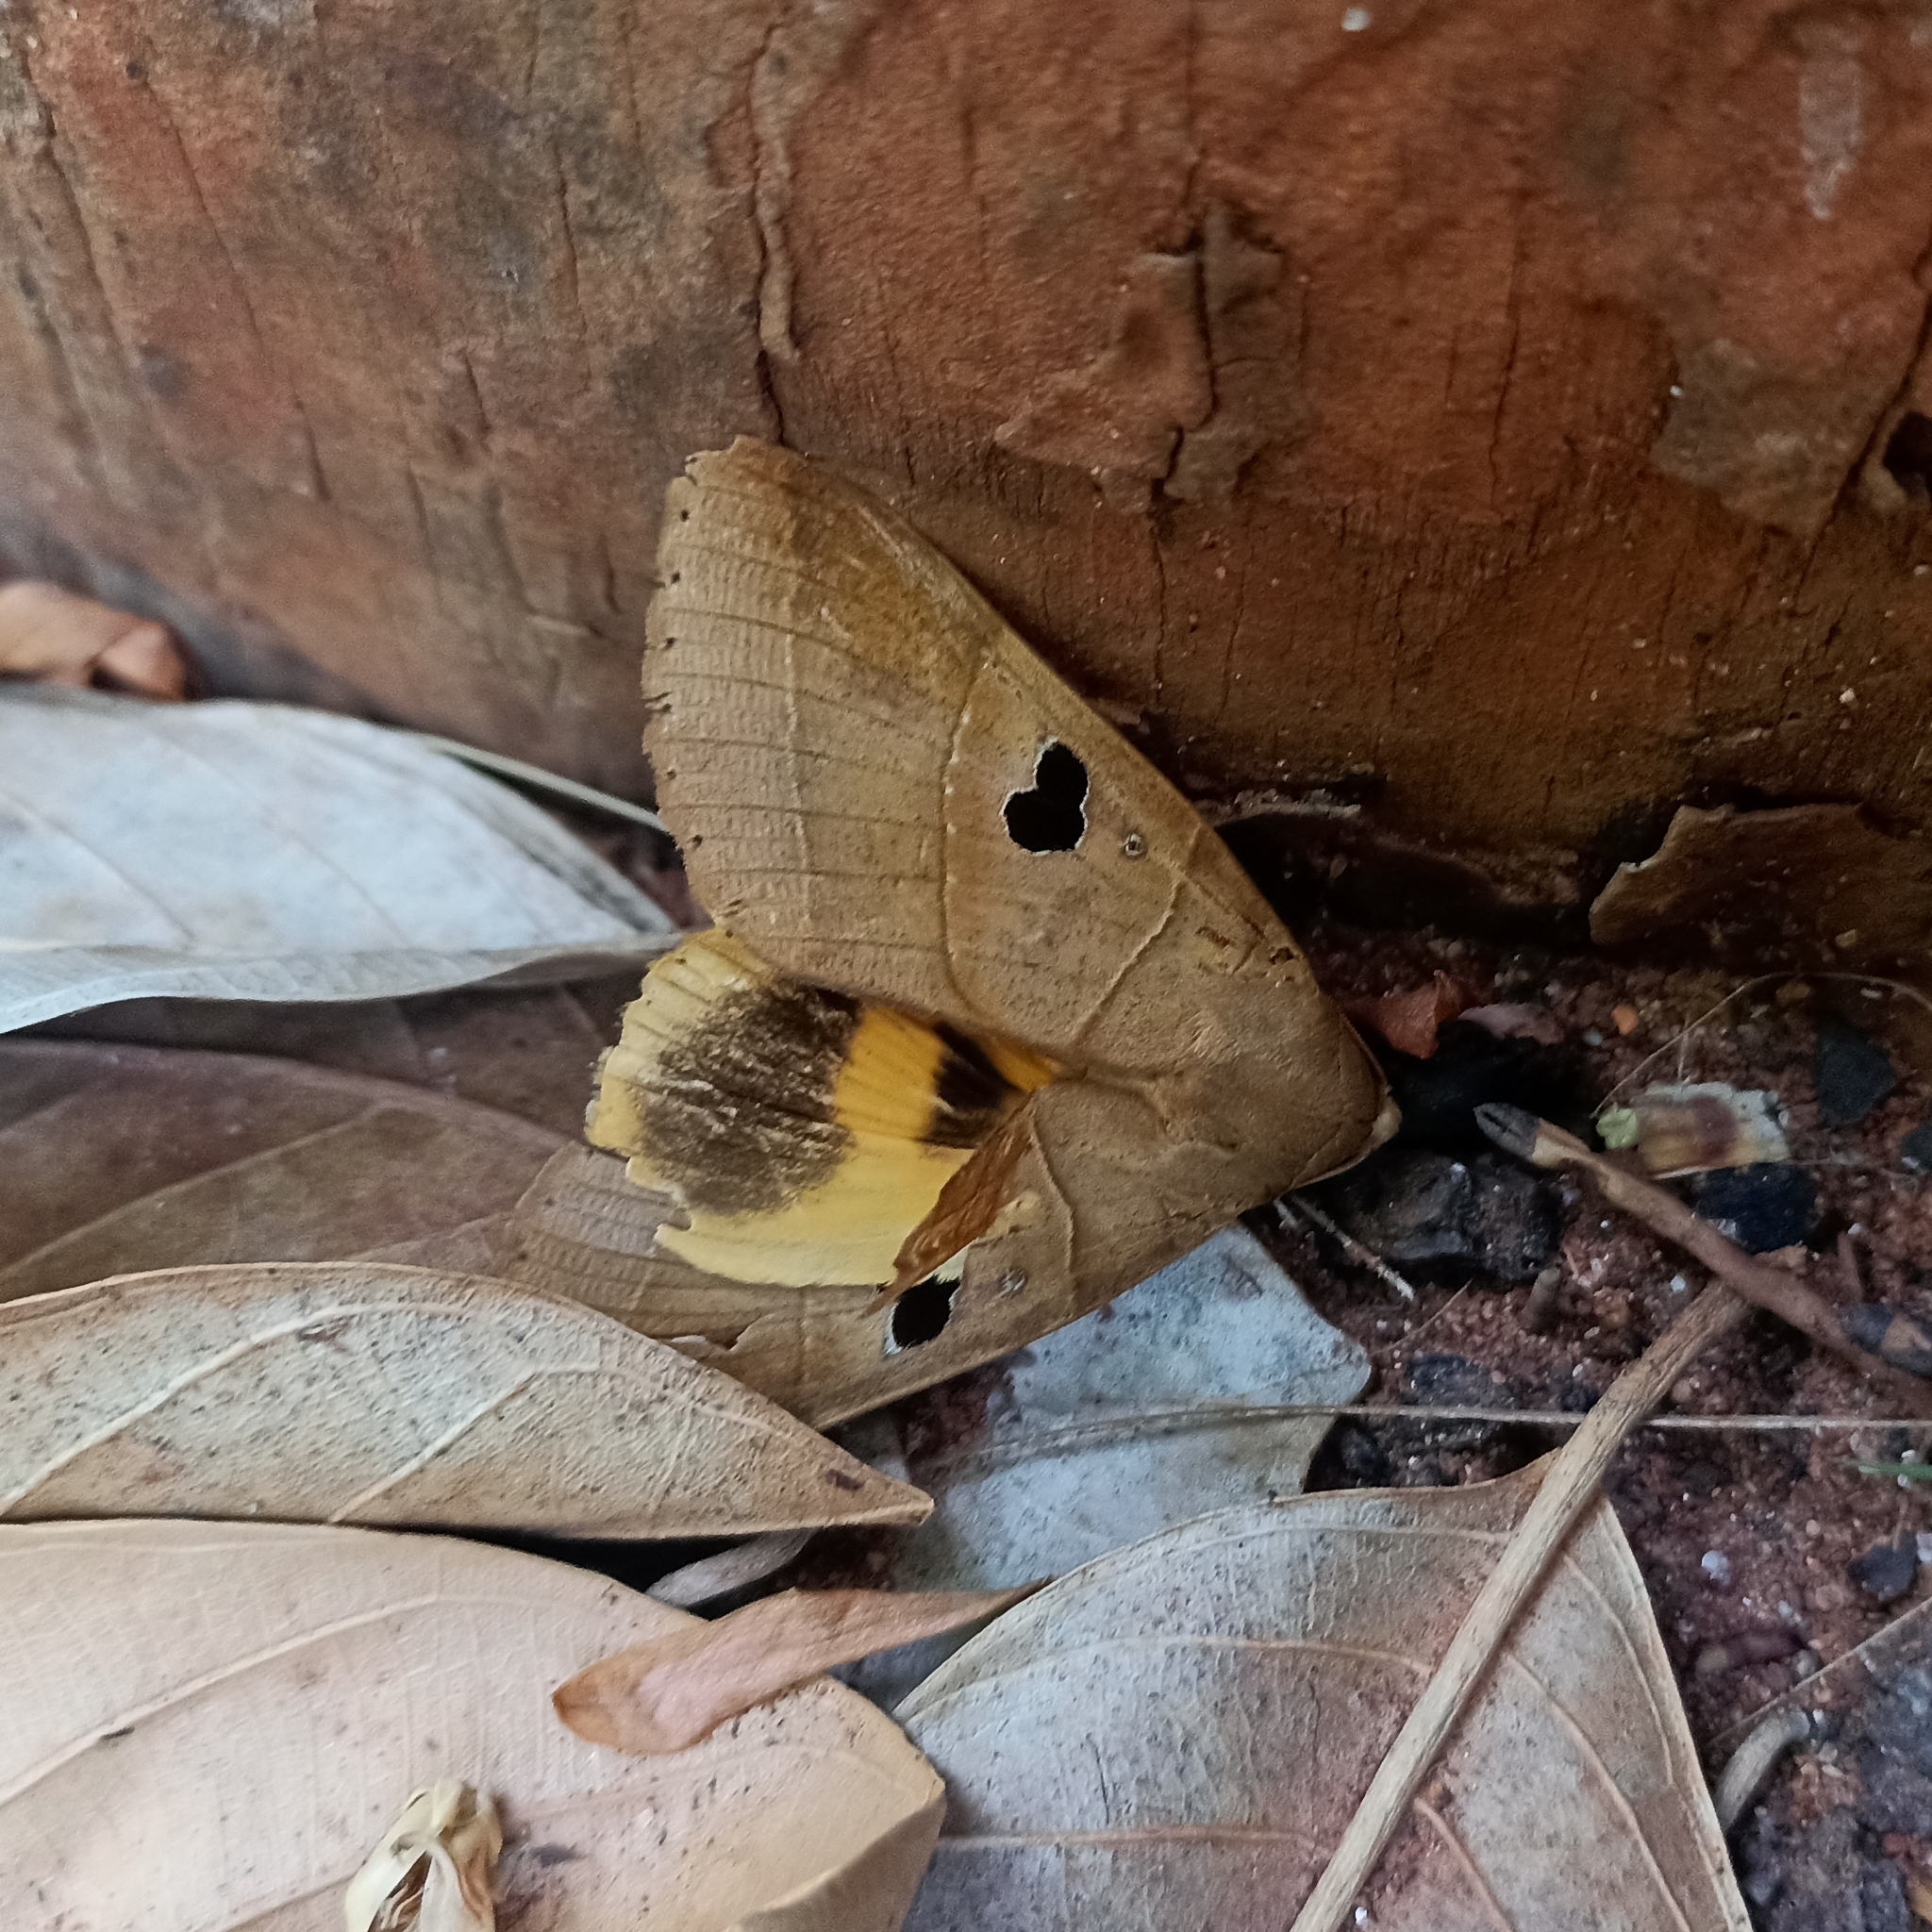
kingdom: Animalia
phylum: Arthropoda
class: Insecta
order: Lepidoptera
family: Erebidae
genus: Thyas
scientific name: Thyas coronata
